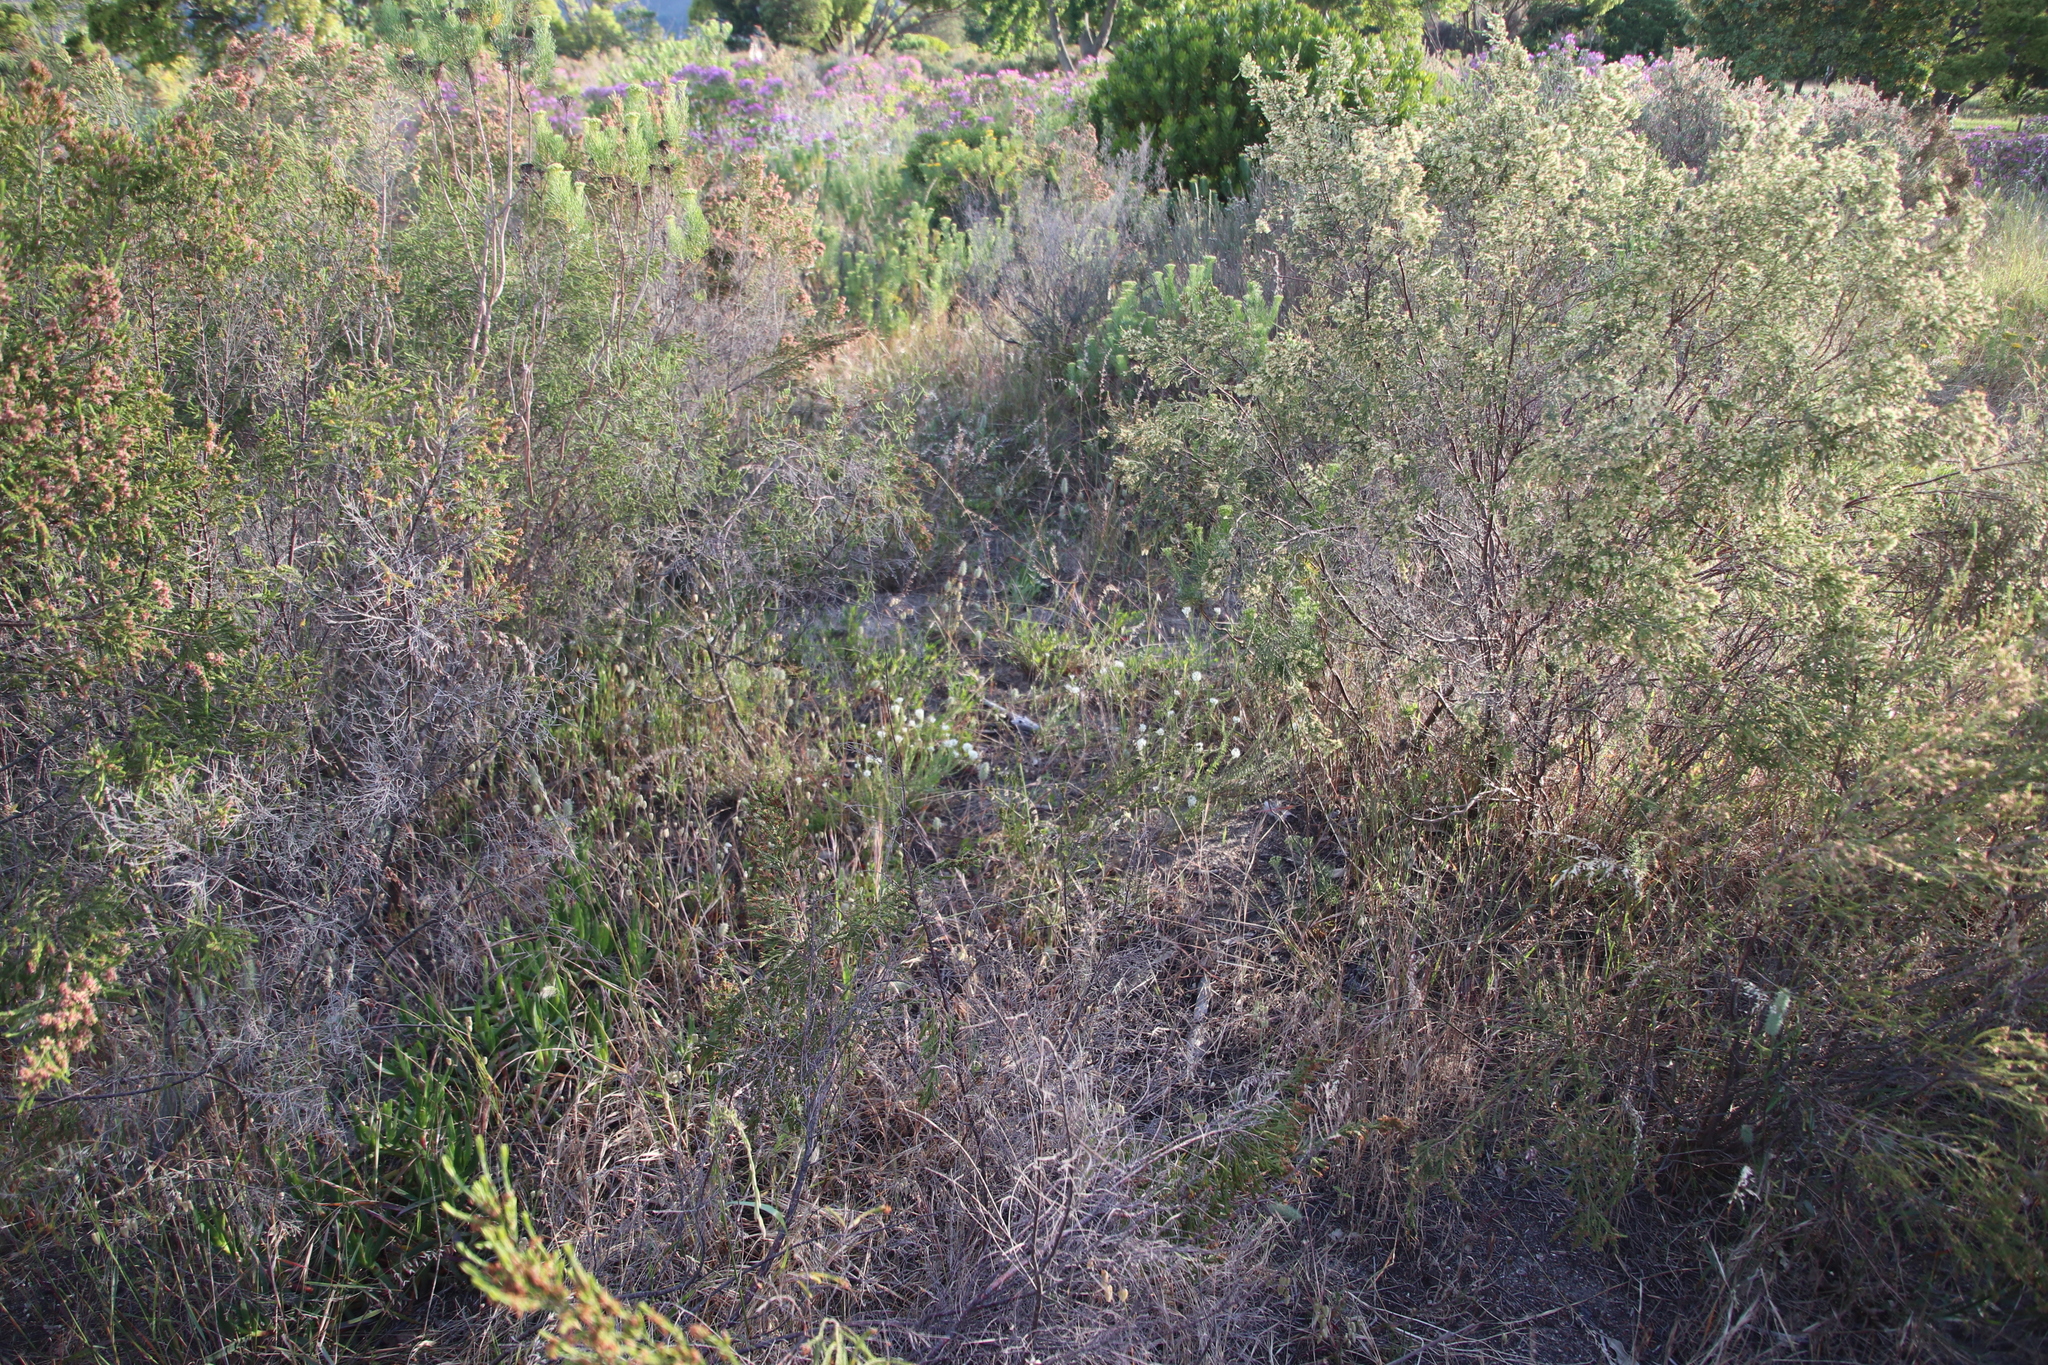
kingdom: Plantae
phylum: Tracheophyta
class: Magnoliopsida
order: Lamiales
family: Scrophulariaceae
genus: Dischisma
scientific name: Dischisma ciliatum
